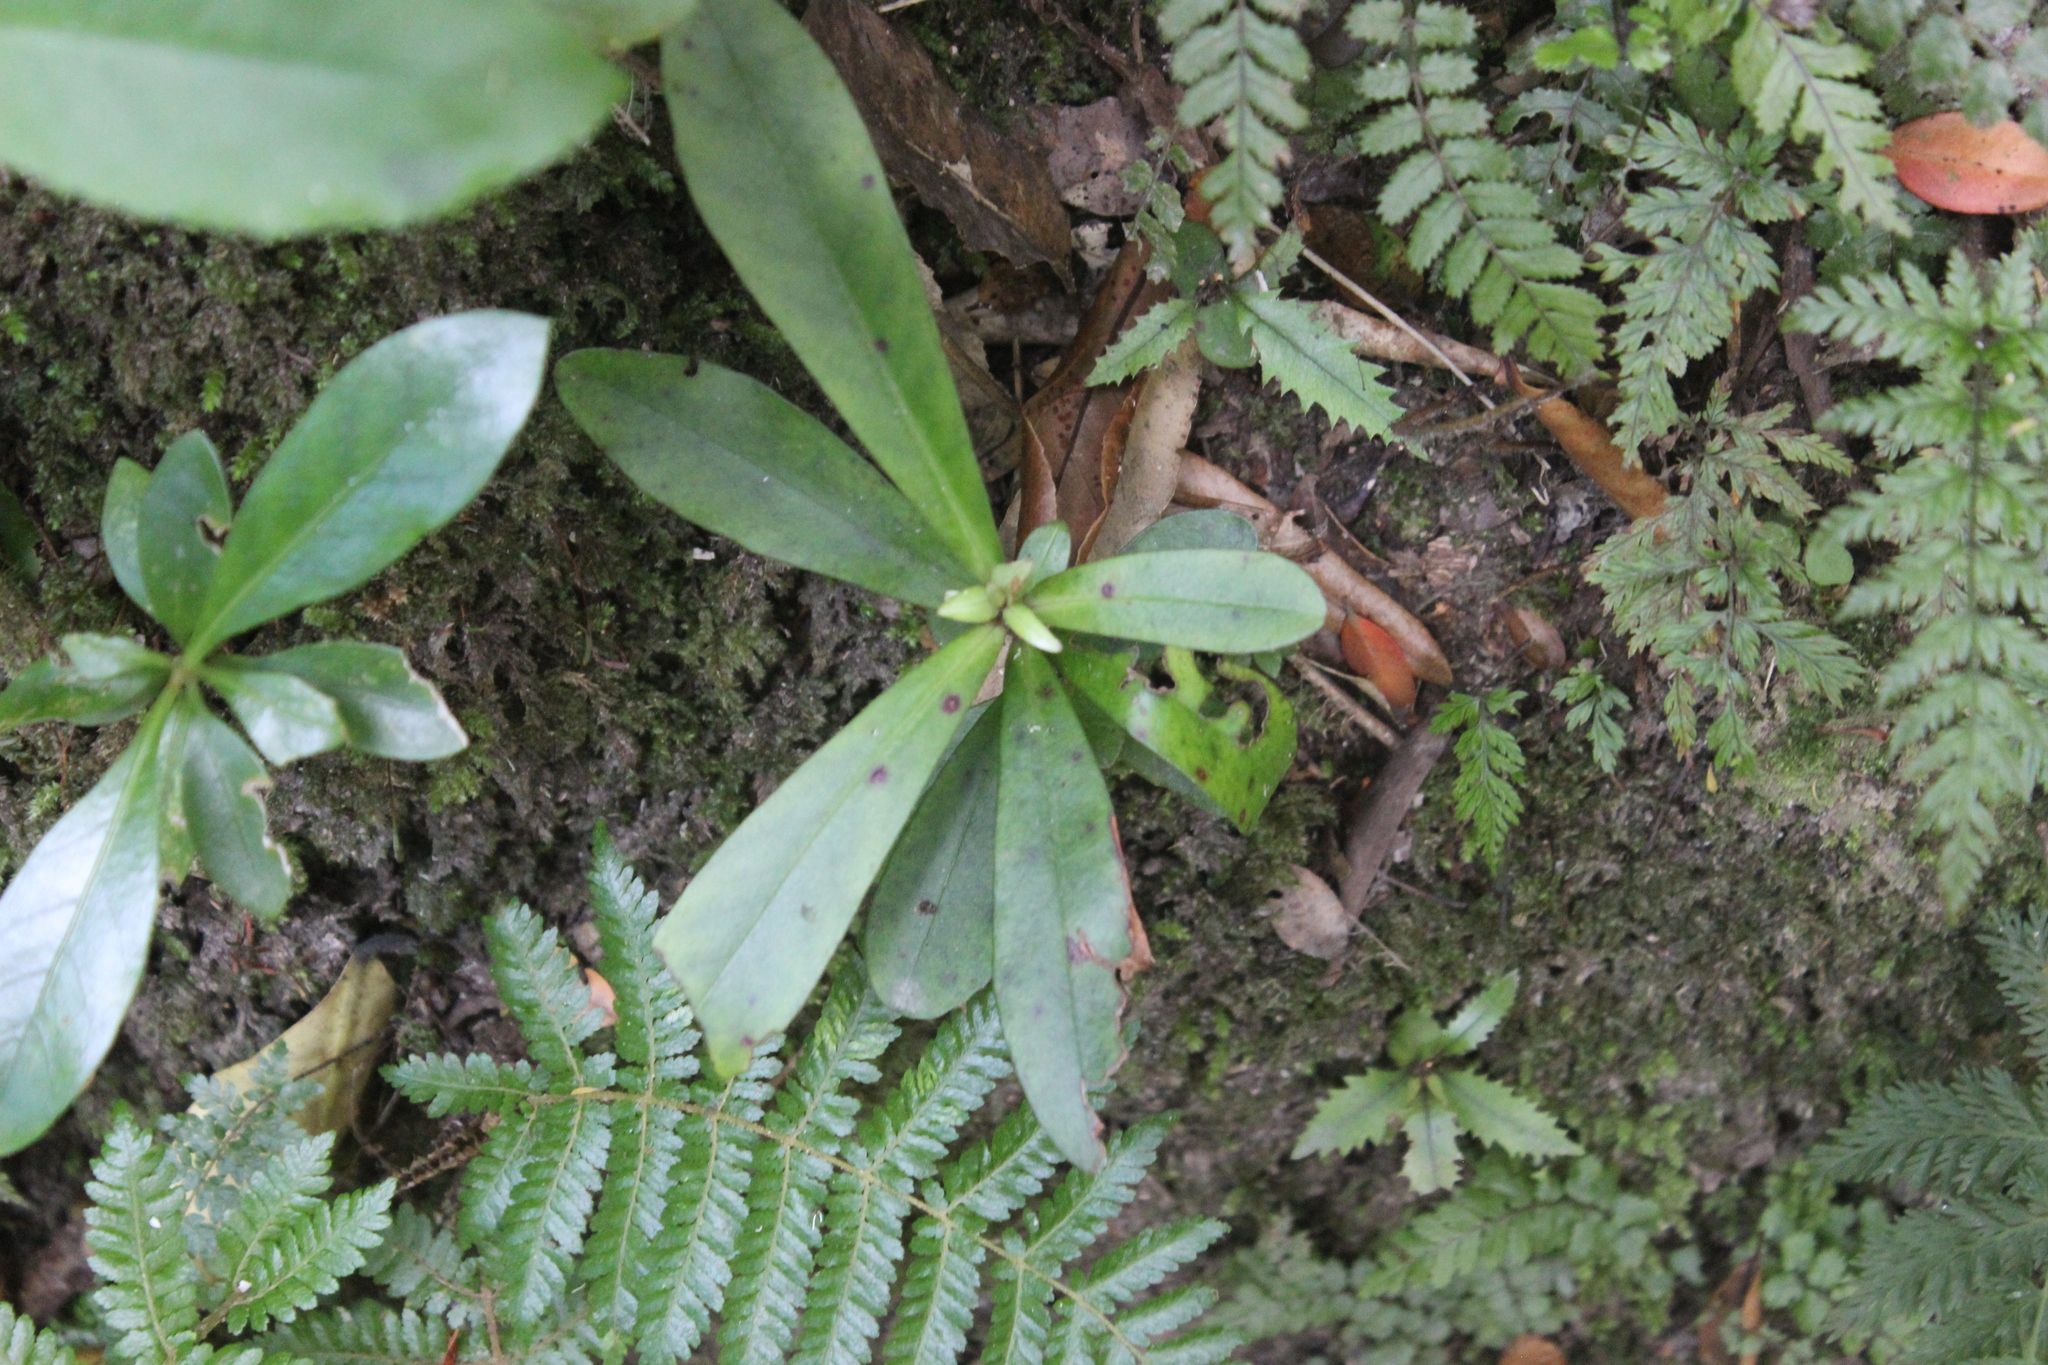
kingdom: Plantae
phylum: Tracheophyta
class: Magnoliopsida
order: Ericales
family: Primulaceae
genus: Myrsine
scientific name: Myrsine salicina
